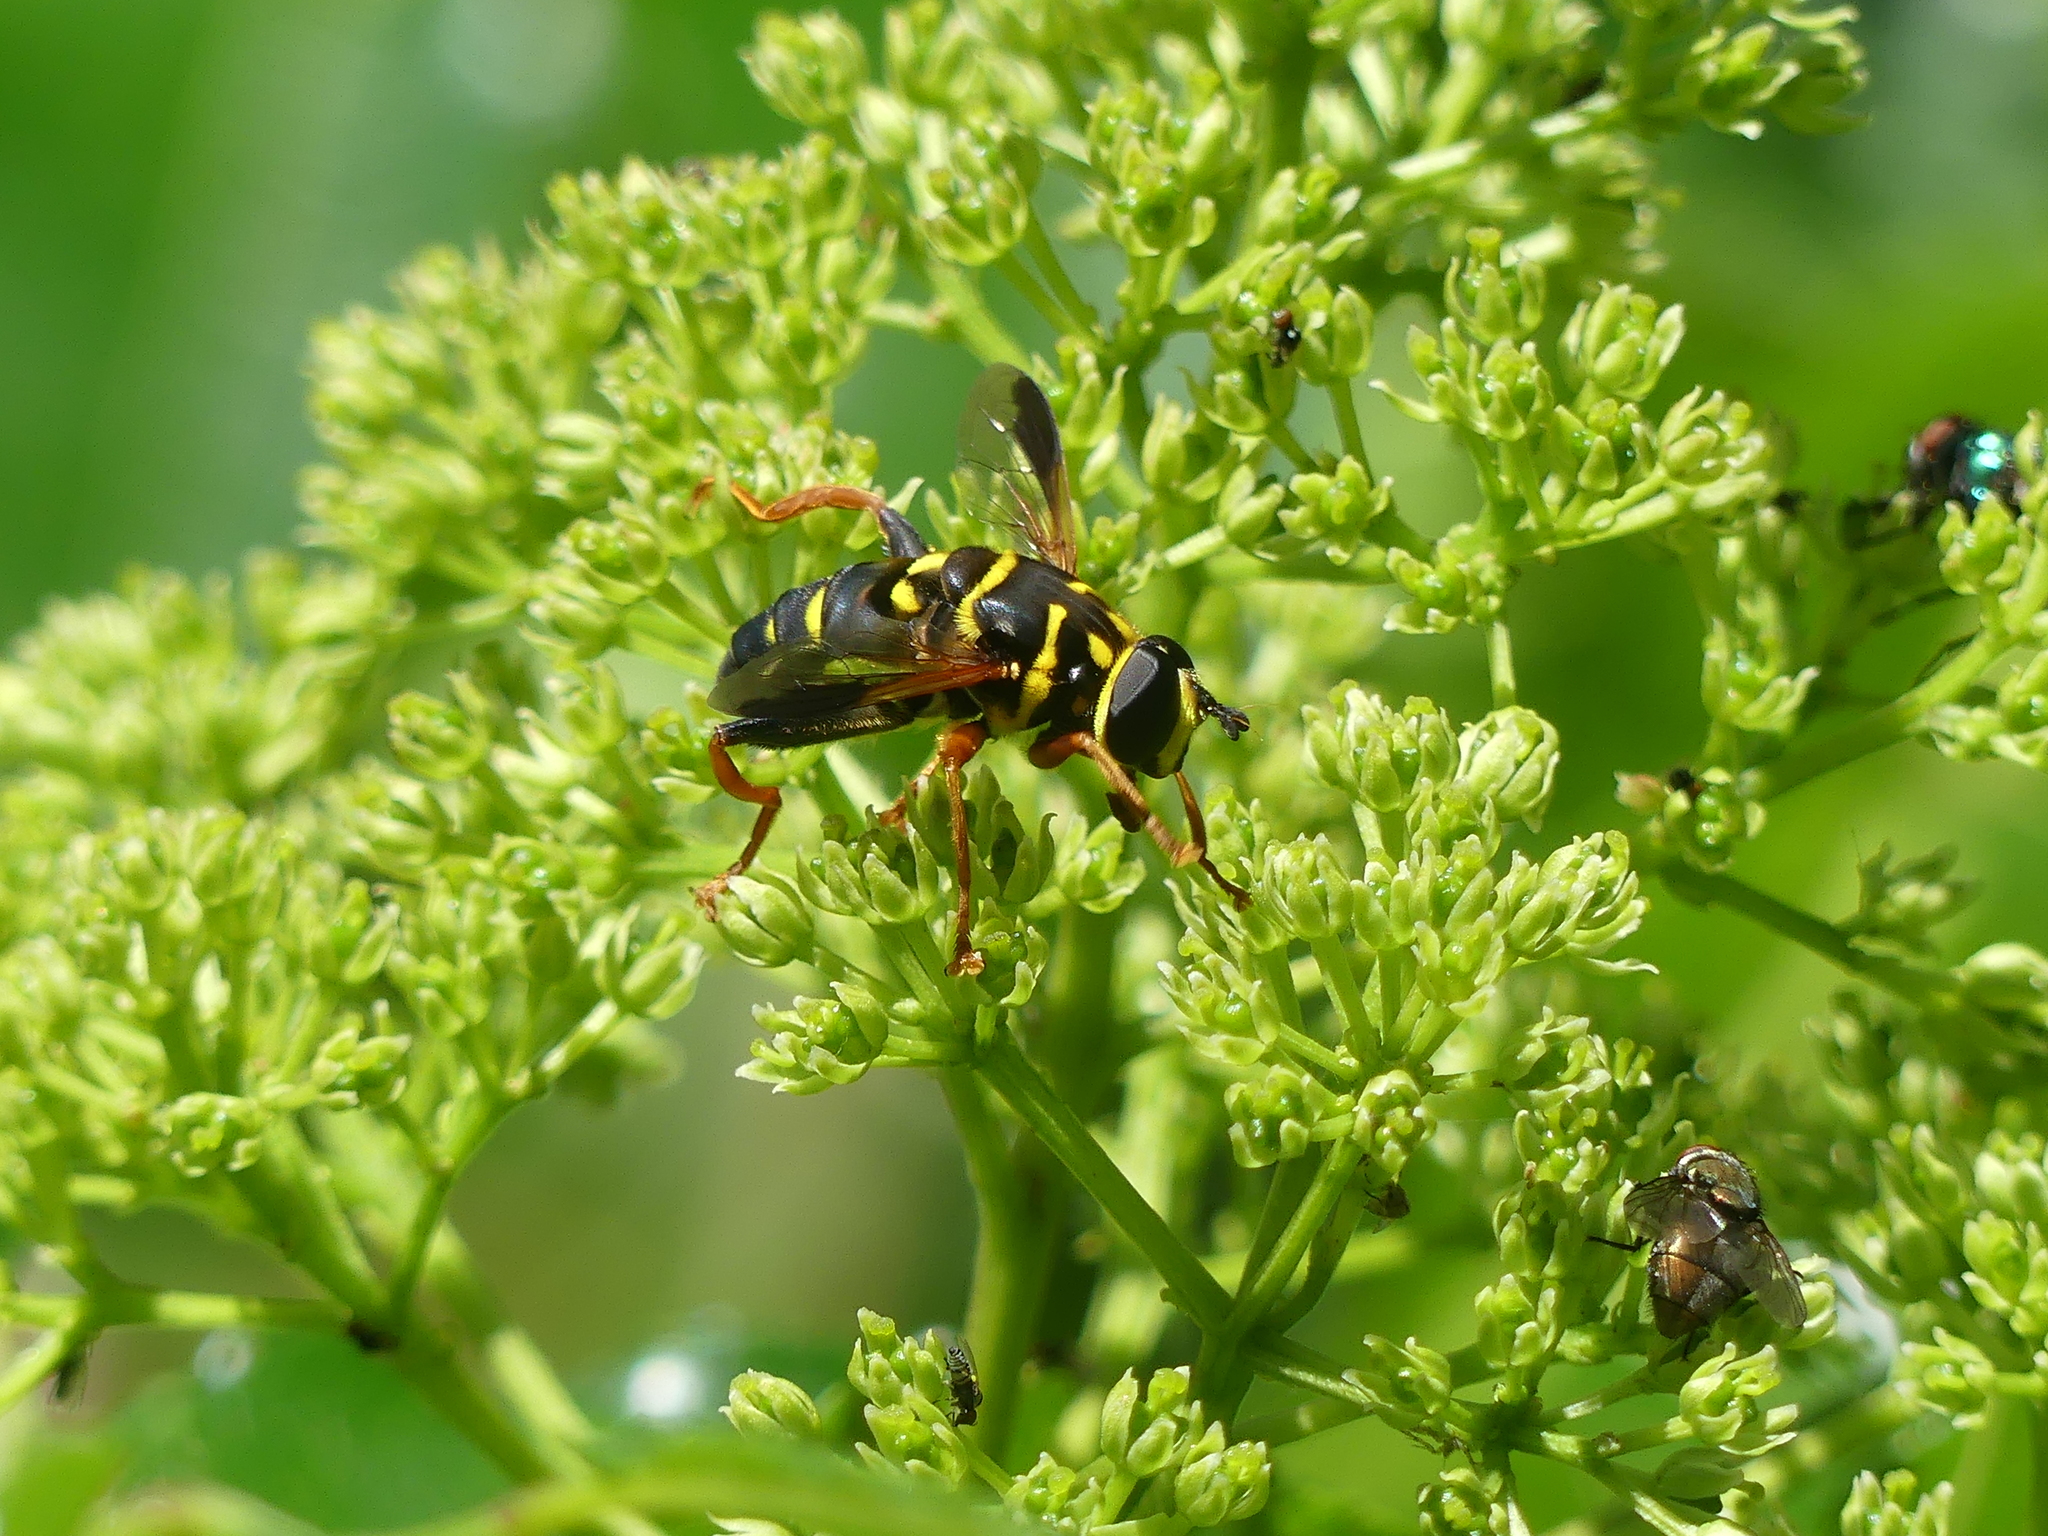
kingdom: Animalia
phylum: Arthropoda
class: Insecta
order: Diptera
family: Syrphidae
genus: Meromacrus
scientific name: Meromacrus acutus
